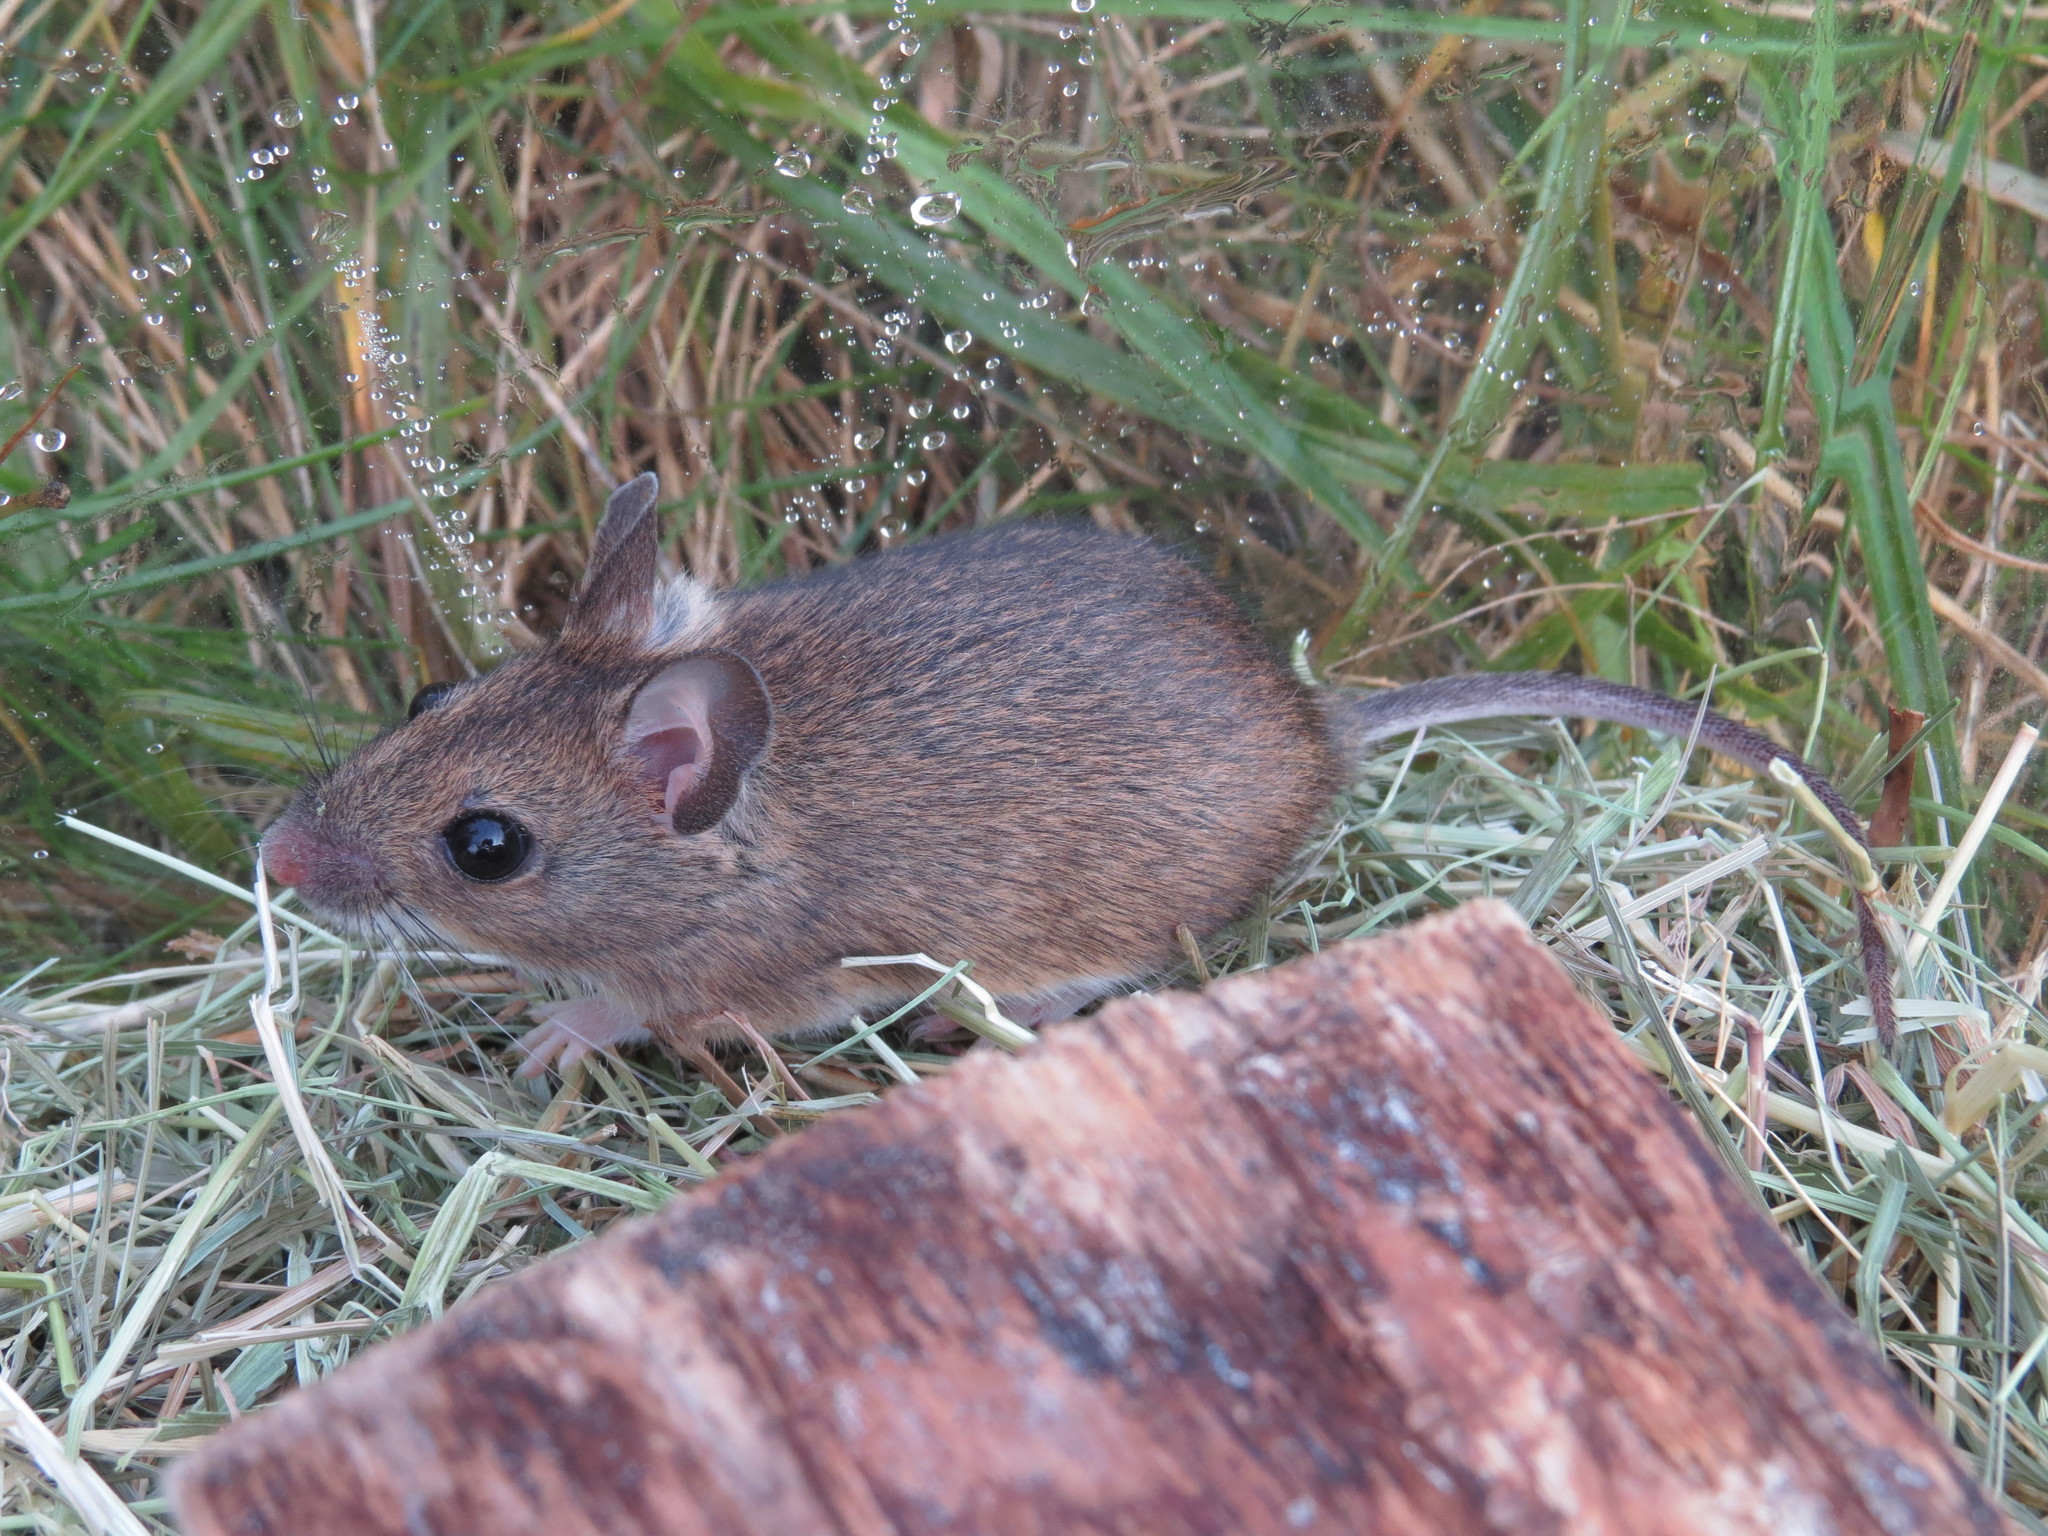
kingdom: Animalia
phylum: Chordata
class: Mammalia
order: Rodentia
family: Muridae
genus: Apodemus
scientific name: Apodemus sylvaticus
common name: Wood mouse
